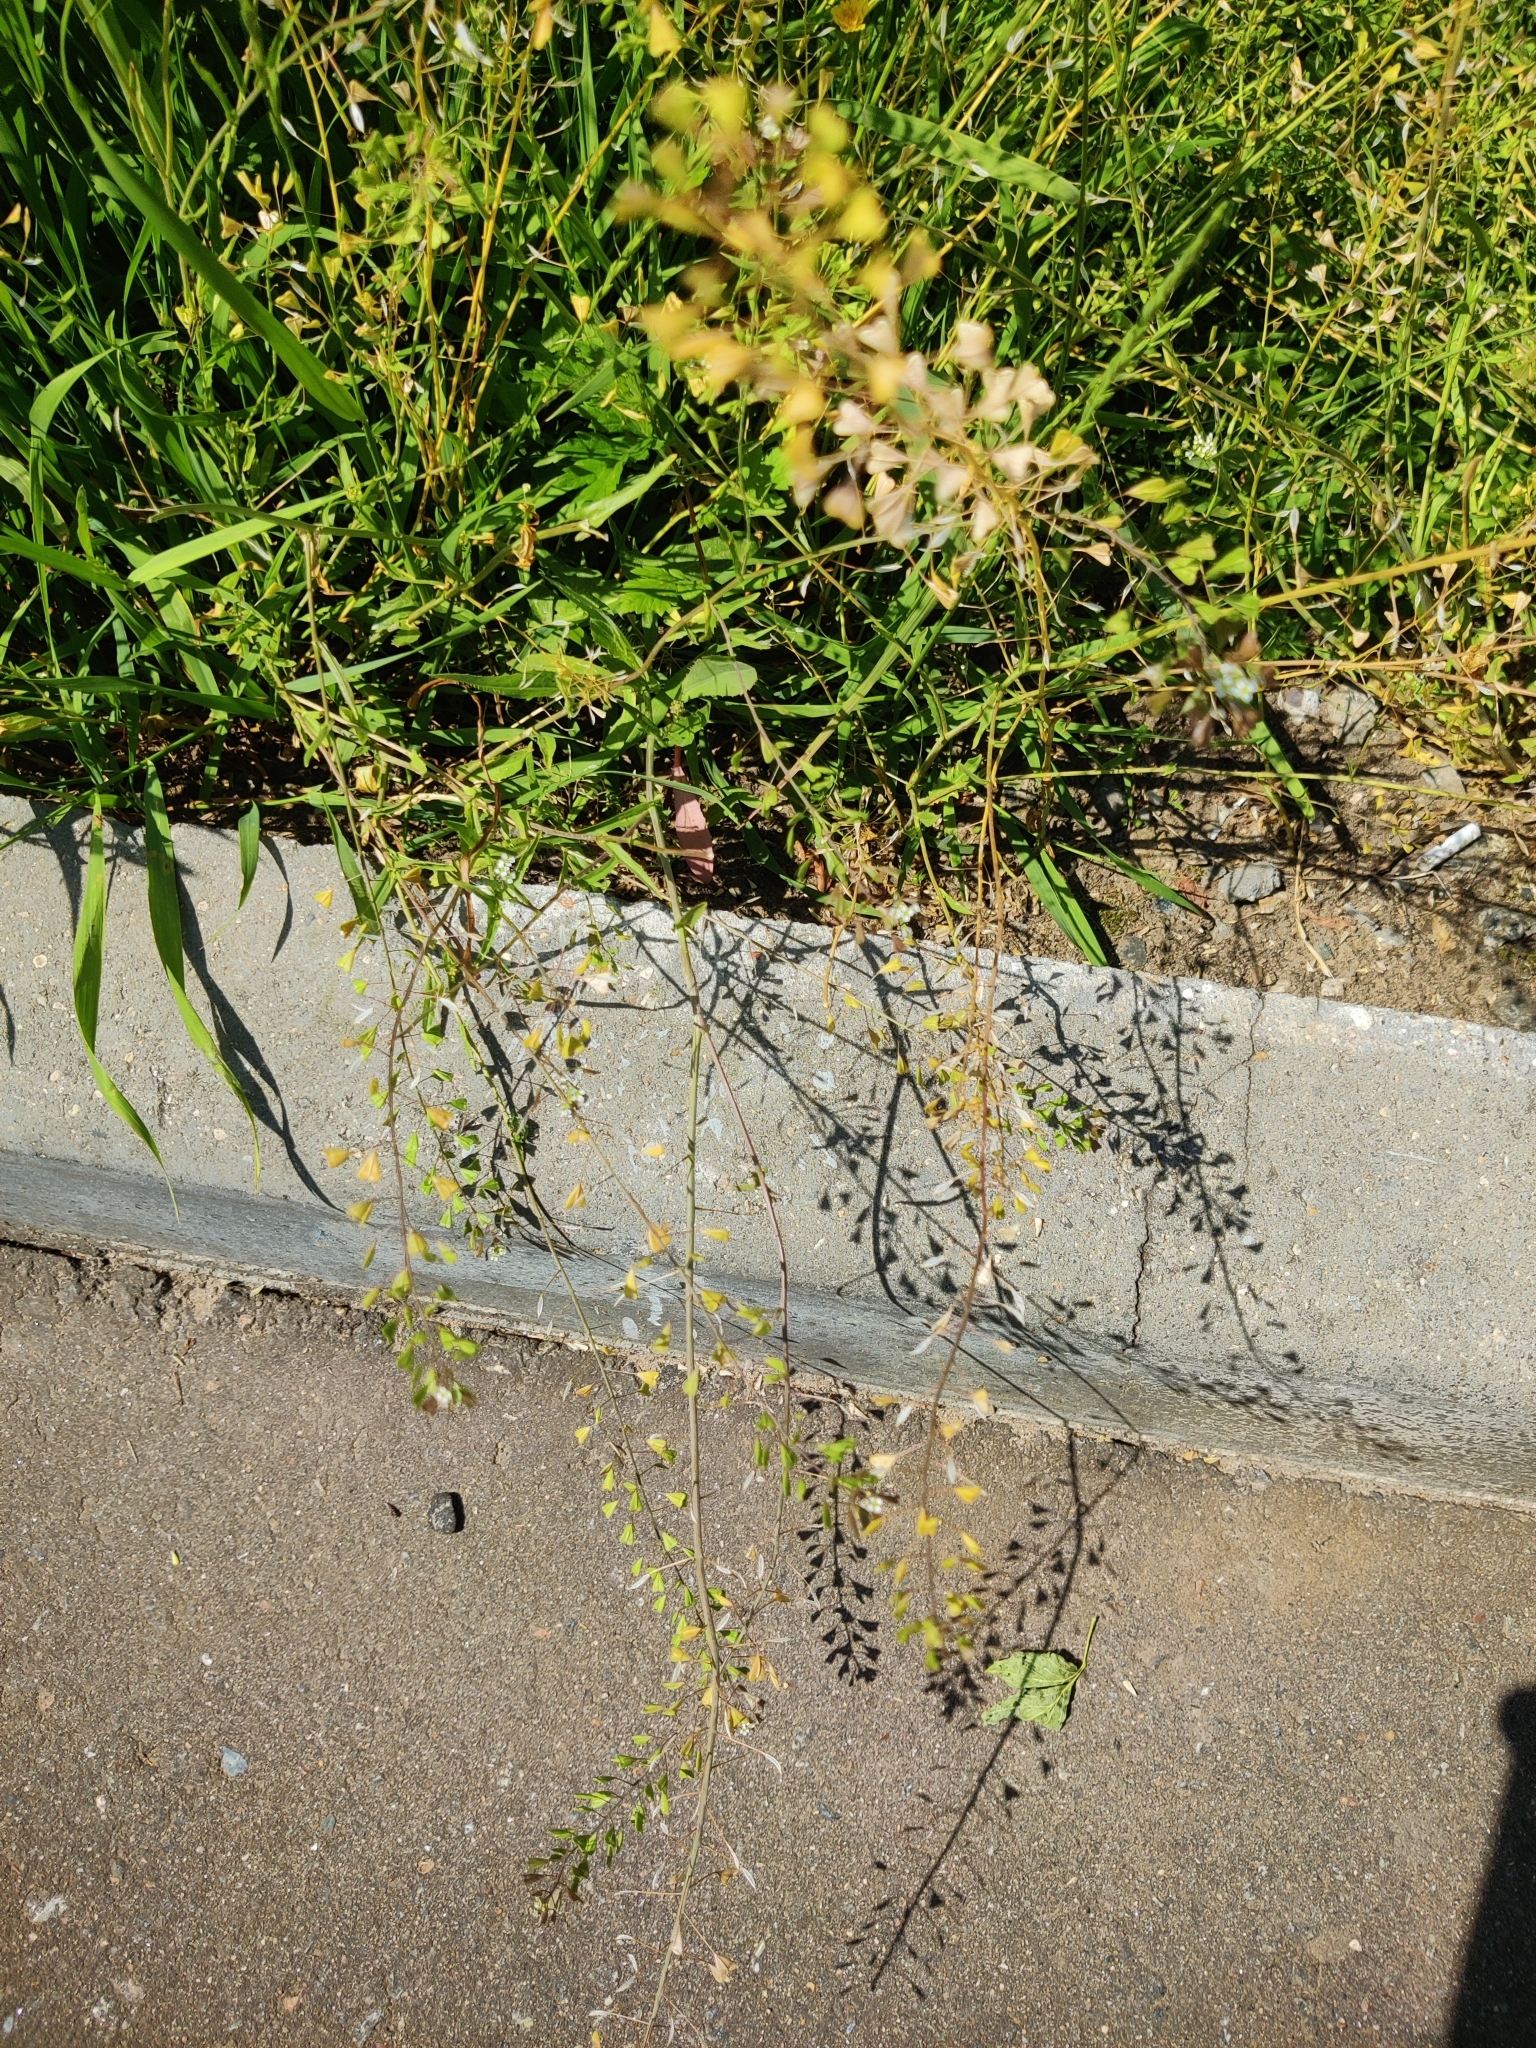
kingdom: Plantae
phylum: Tracheophyta
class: Magnoliopsida
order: Brassicales
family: Brassicaceae
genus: Capsella
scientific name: Capsella bursa-pastoris
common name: Shepherd's purse
